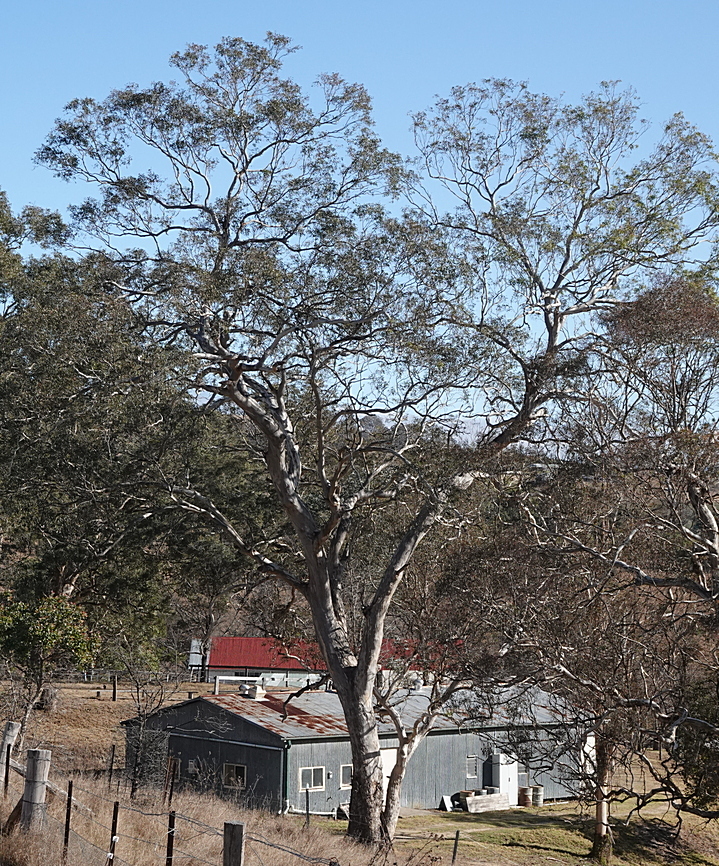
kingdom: Plantae
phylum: Tracheophyta
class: Magnoliopsida
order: Myrtales
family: Myrtaceae
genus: Eucalyptus
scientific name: Eucalyptus melliodora
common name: Yellow ironbox
